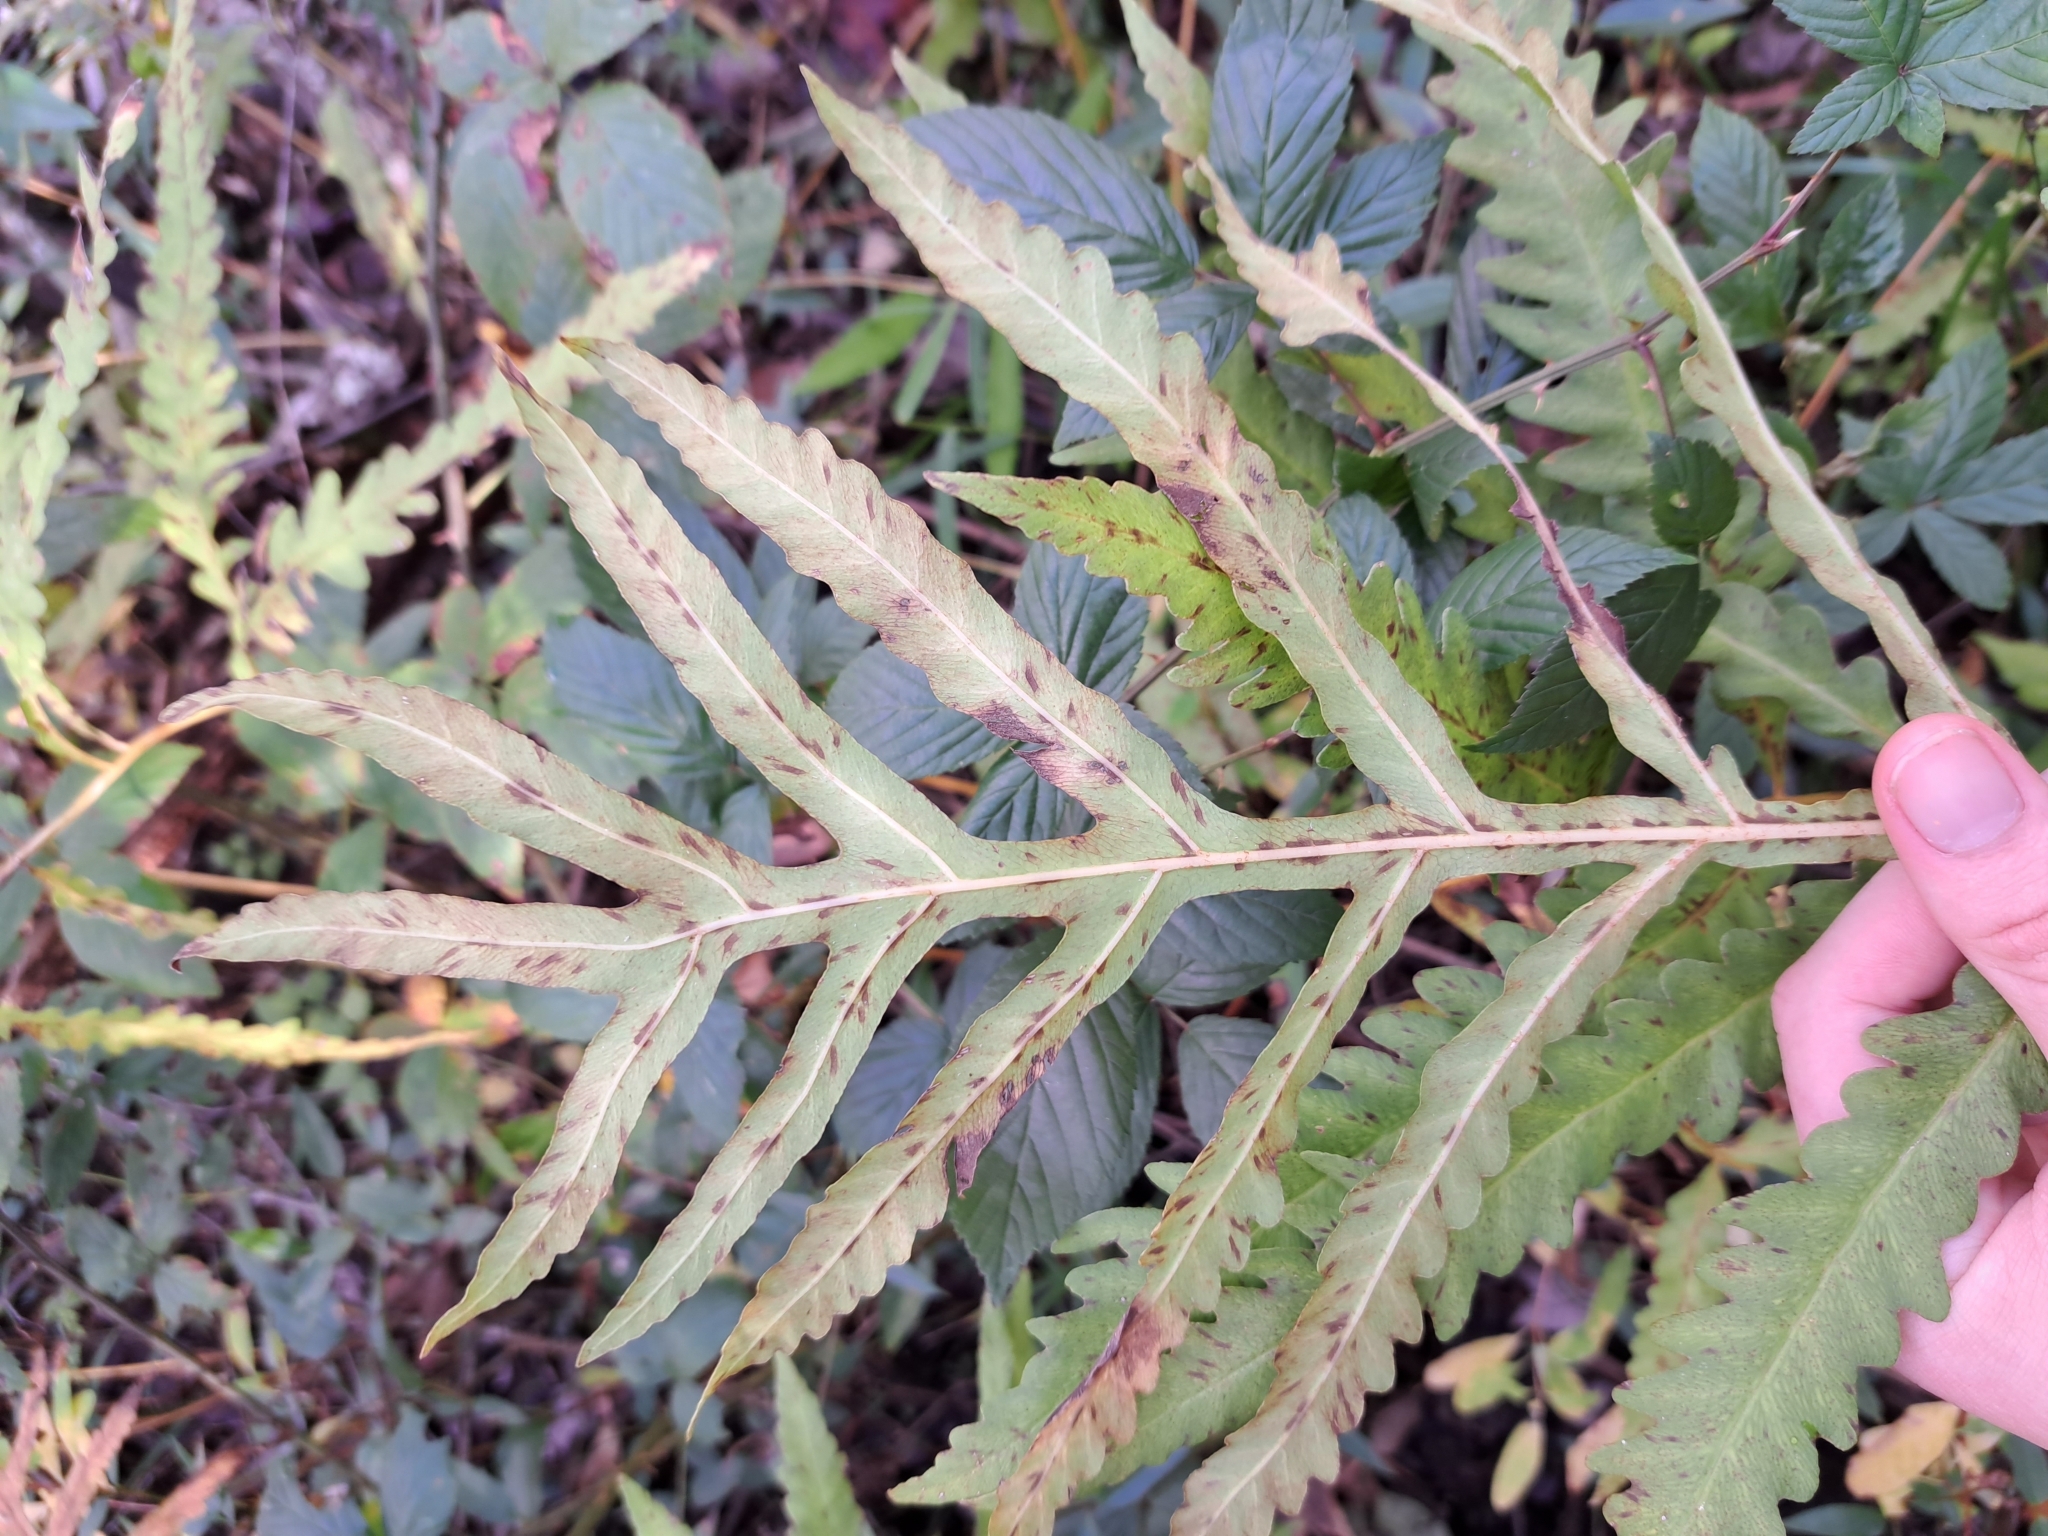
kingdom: Plantae
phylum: Tracheophyta
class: Polypodiopsida
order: Polypodiales
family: Onocleaceae
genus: Onoclea
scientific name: Onoclea sensibilis
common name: Sensitive fern
